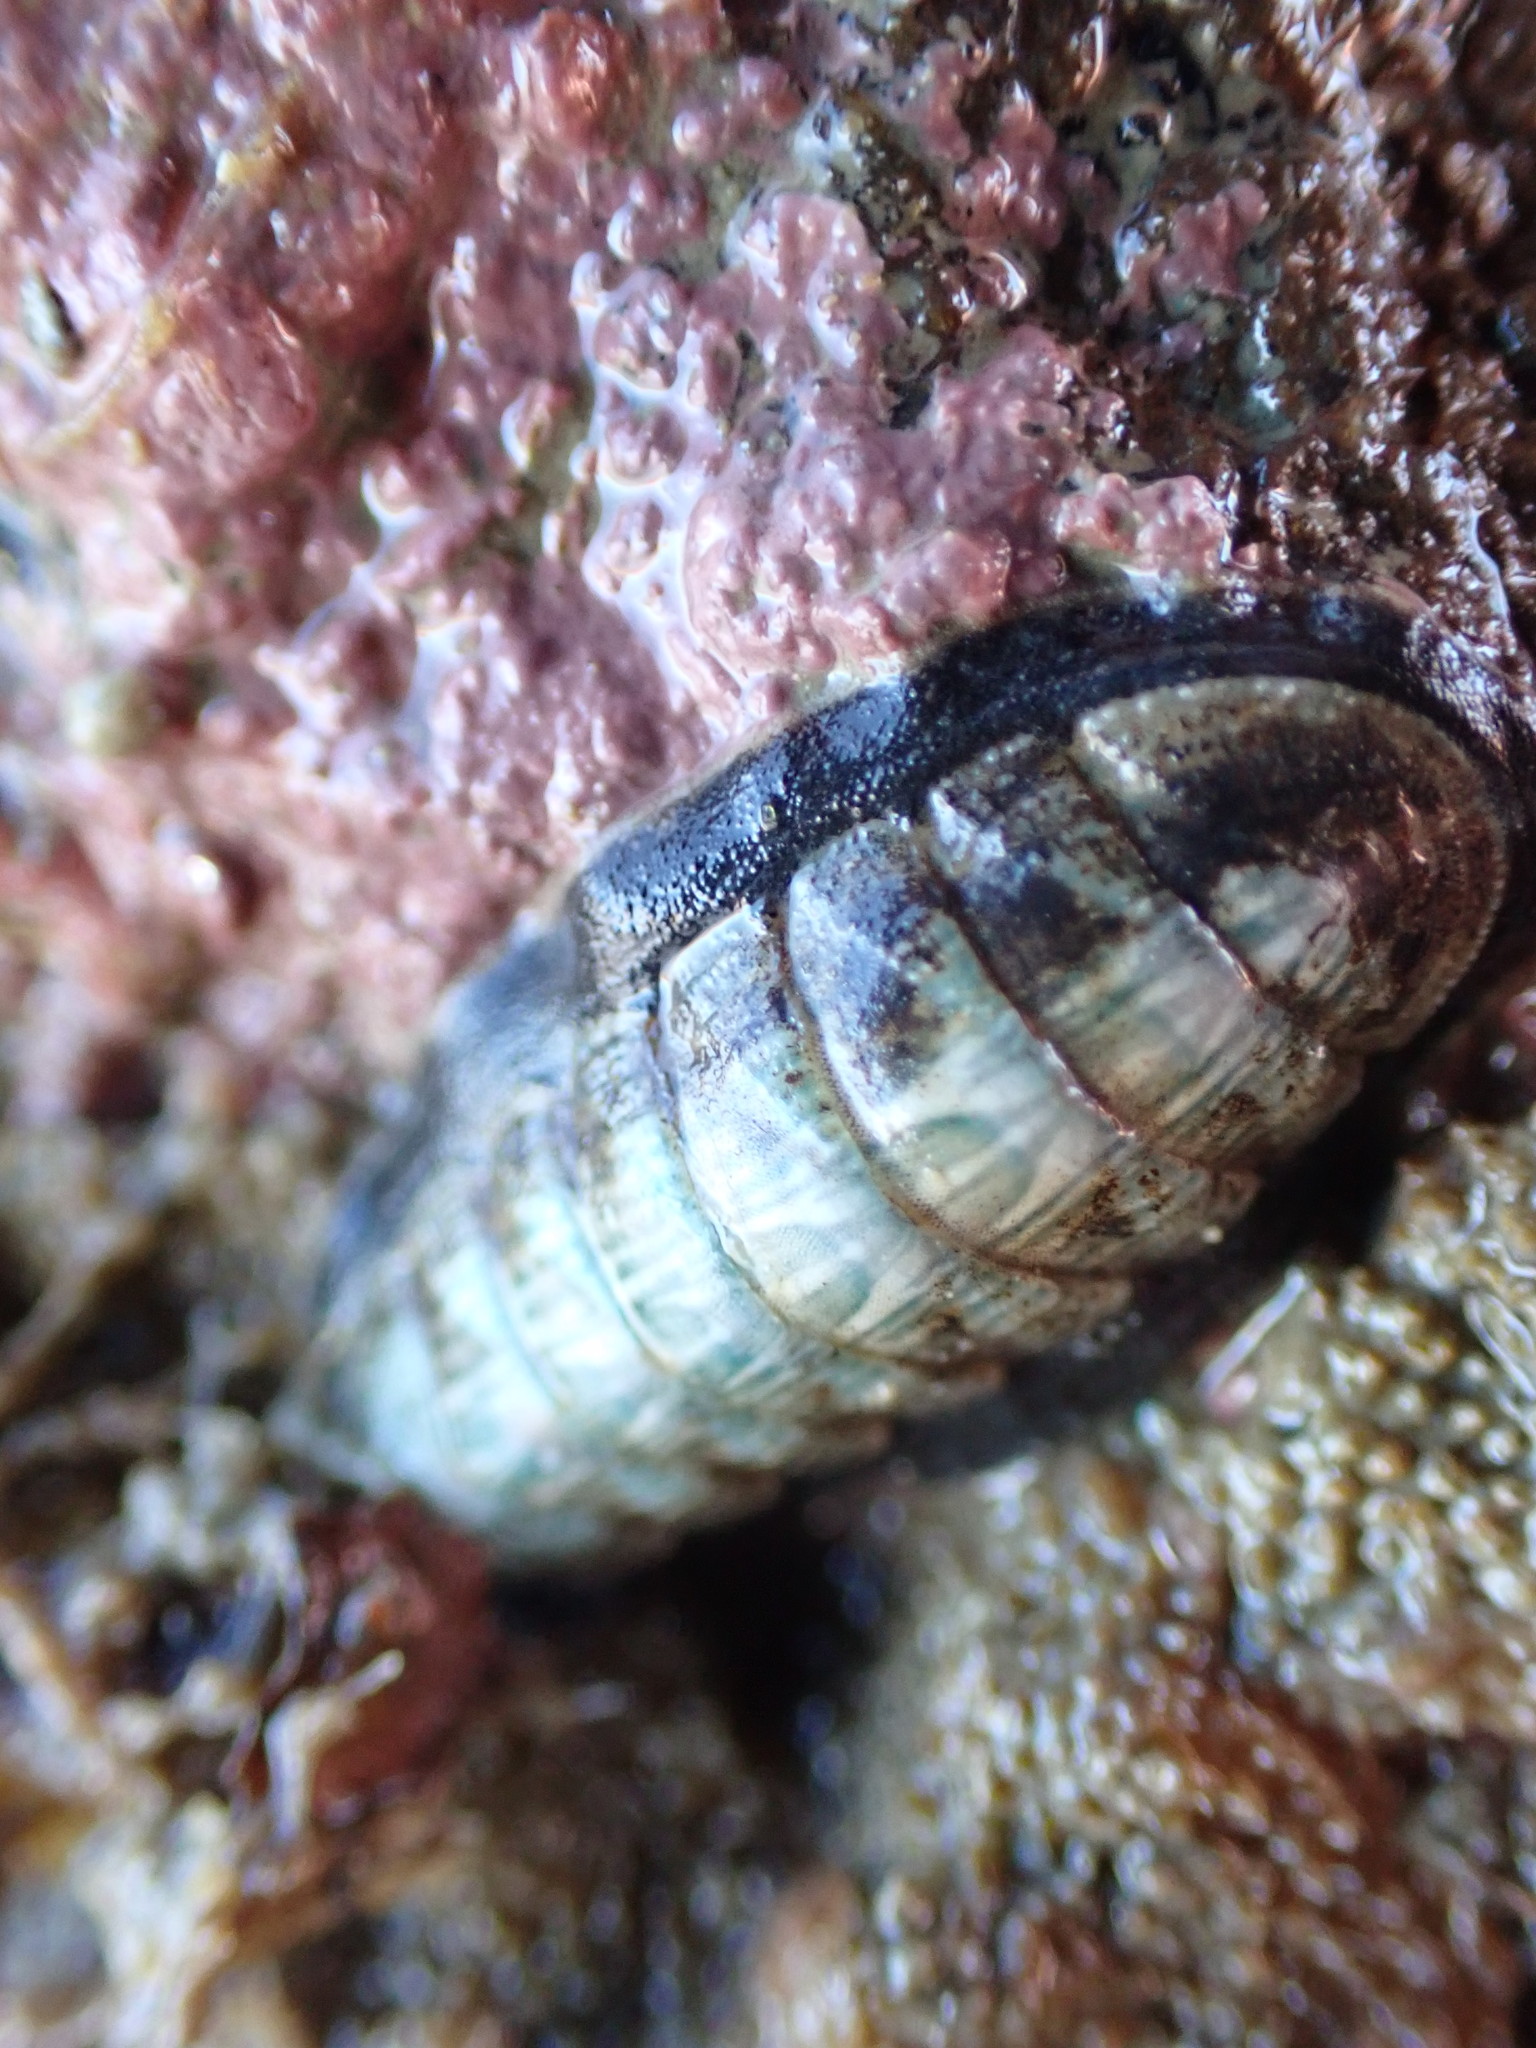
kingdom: Animalia
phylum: Mollusca
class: Polyplacophora
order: Chitonida
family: Ischnochitonidae
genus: Ischnochiton
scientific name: Ischnochiton maorianus
